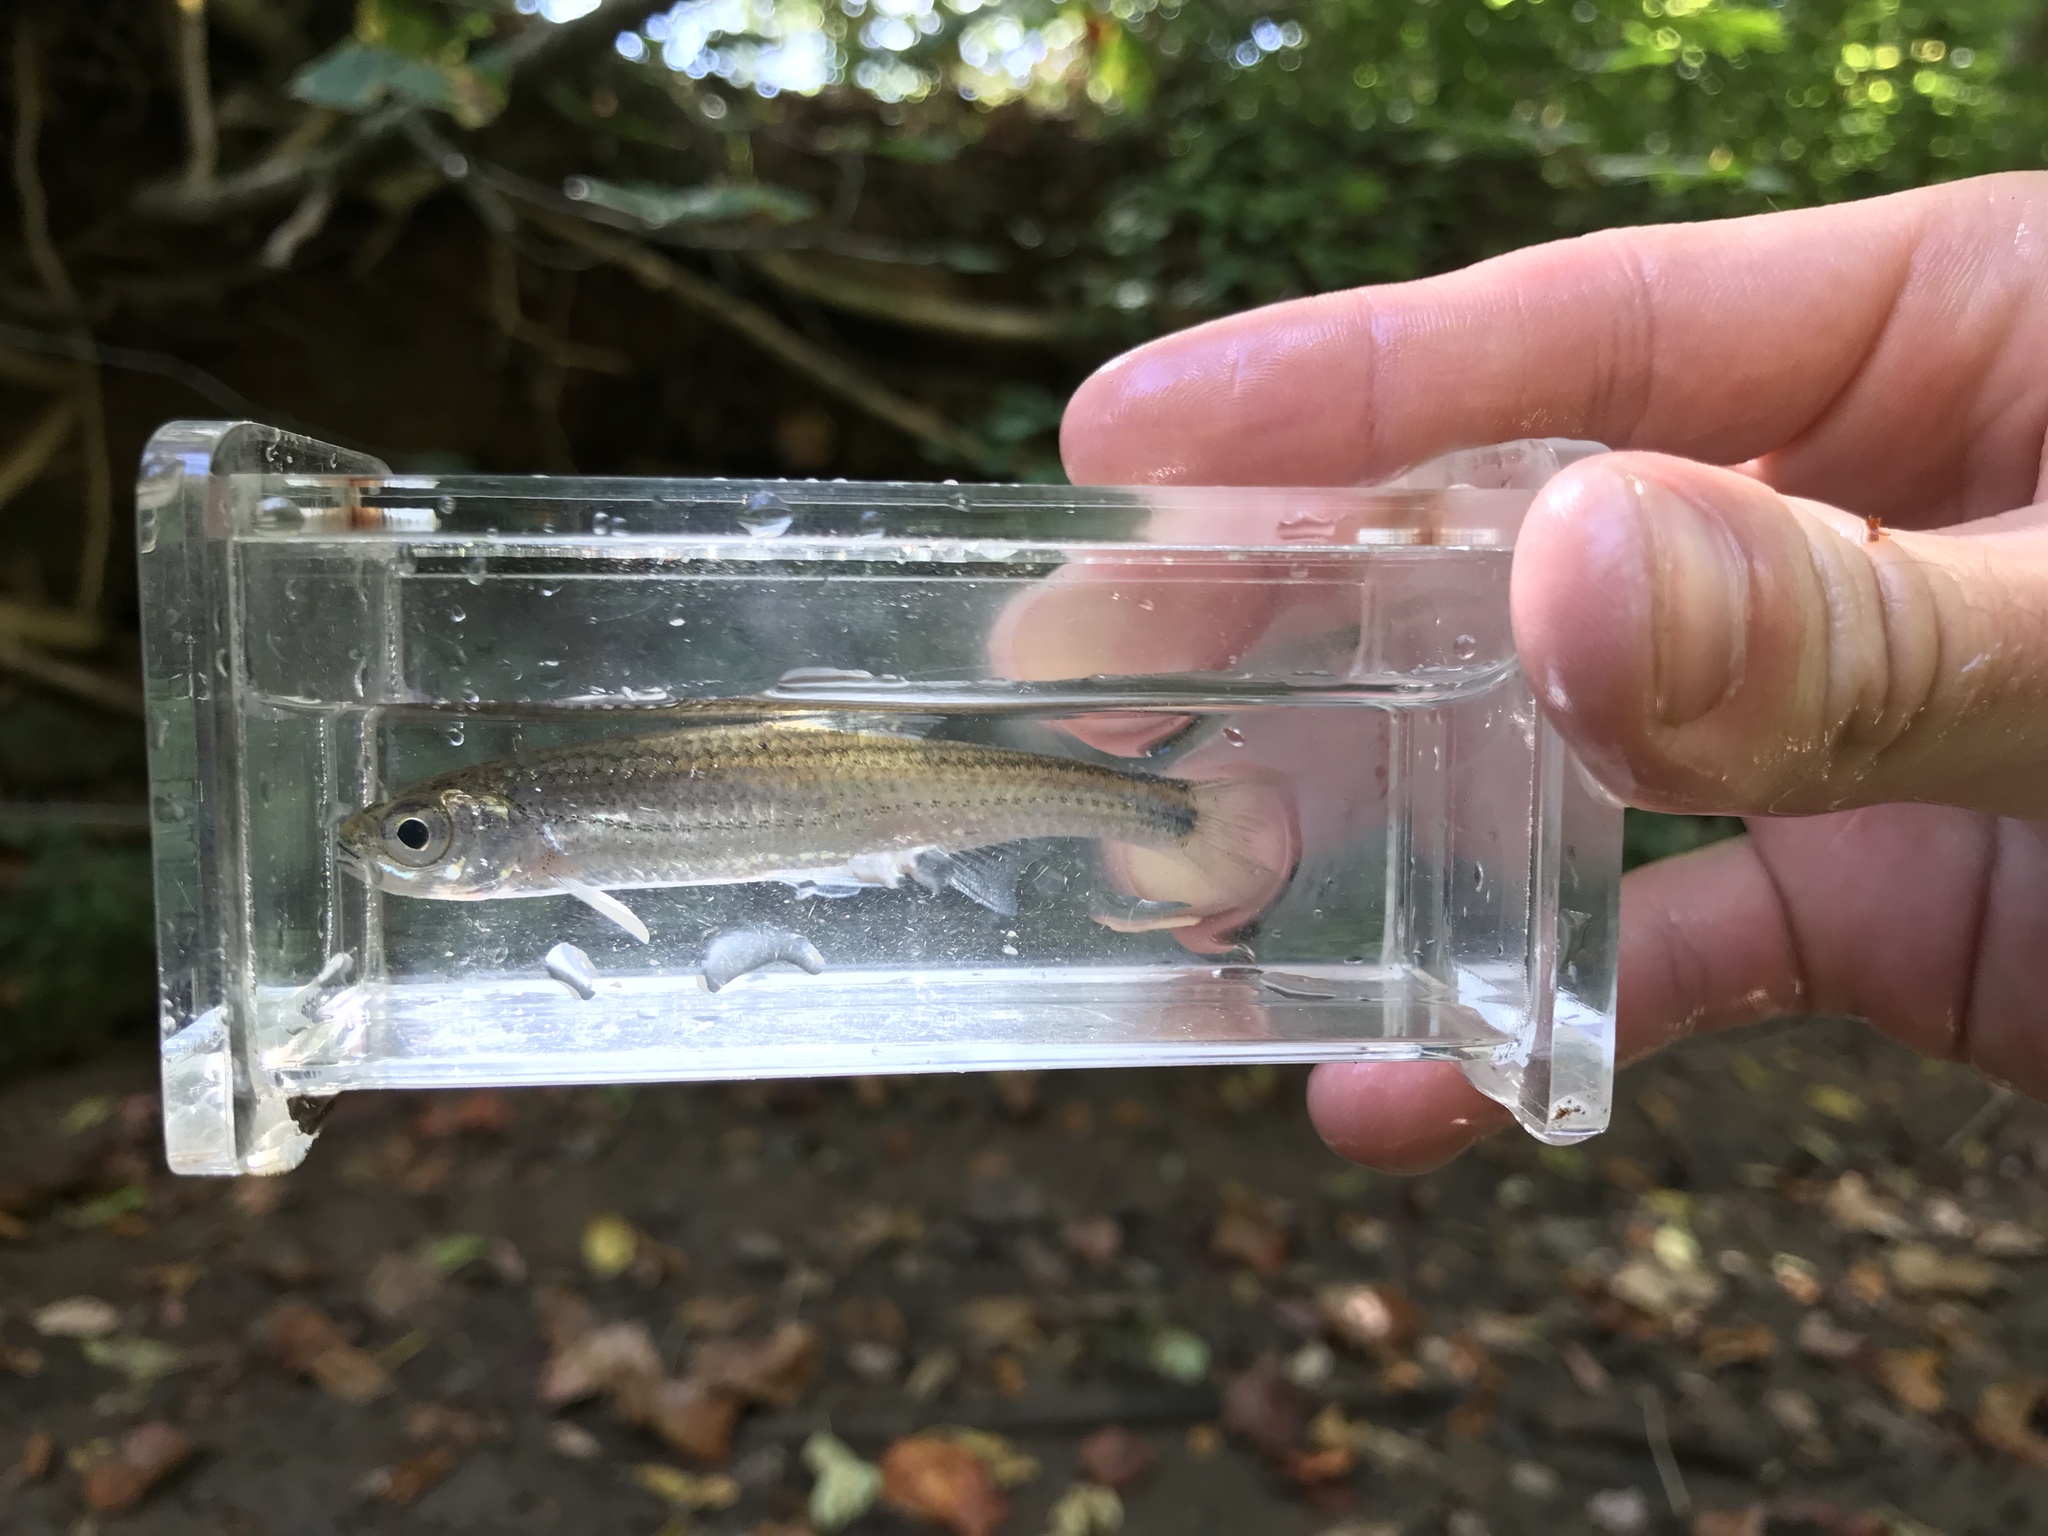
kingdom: Animalia
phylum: Chordata
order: Cypriniformes
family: Cyprinidae
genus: Notropis
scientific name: Notropis telescopus
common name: Telescope shiner
